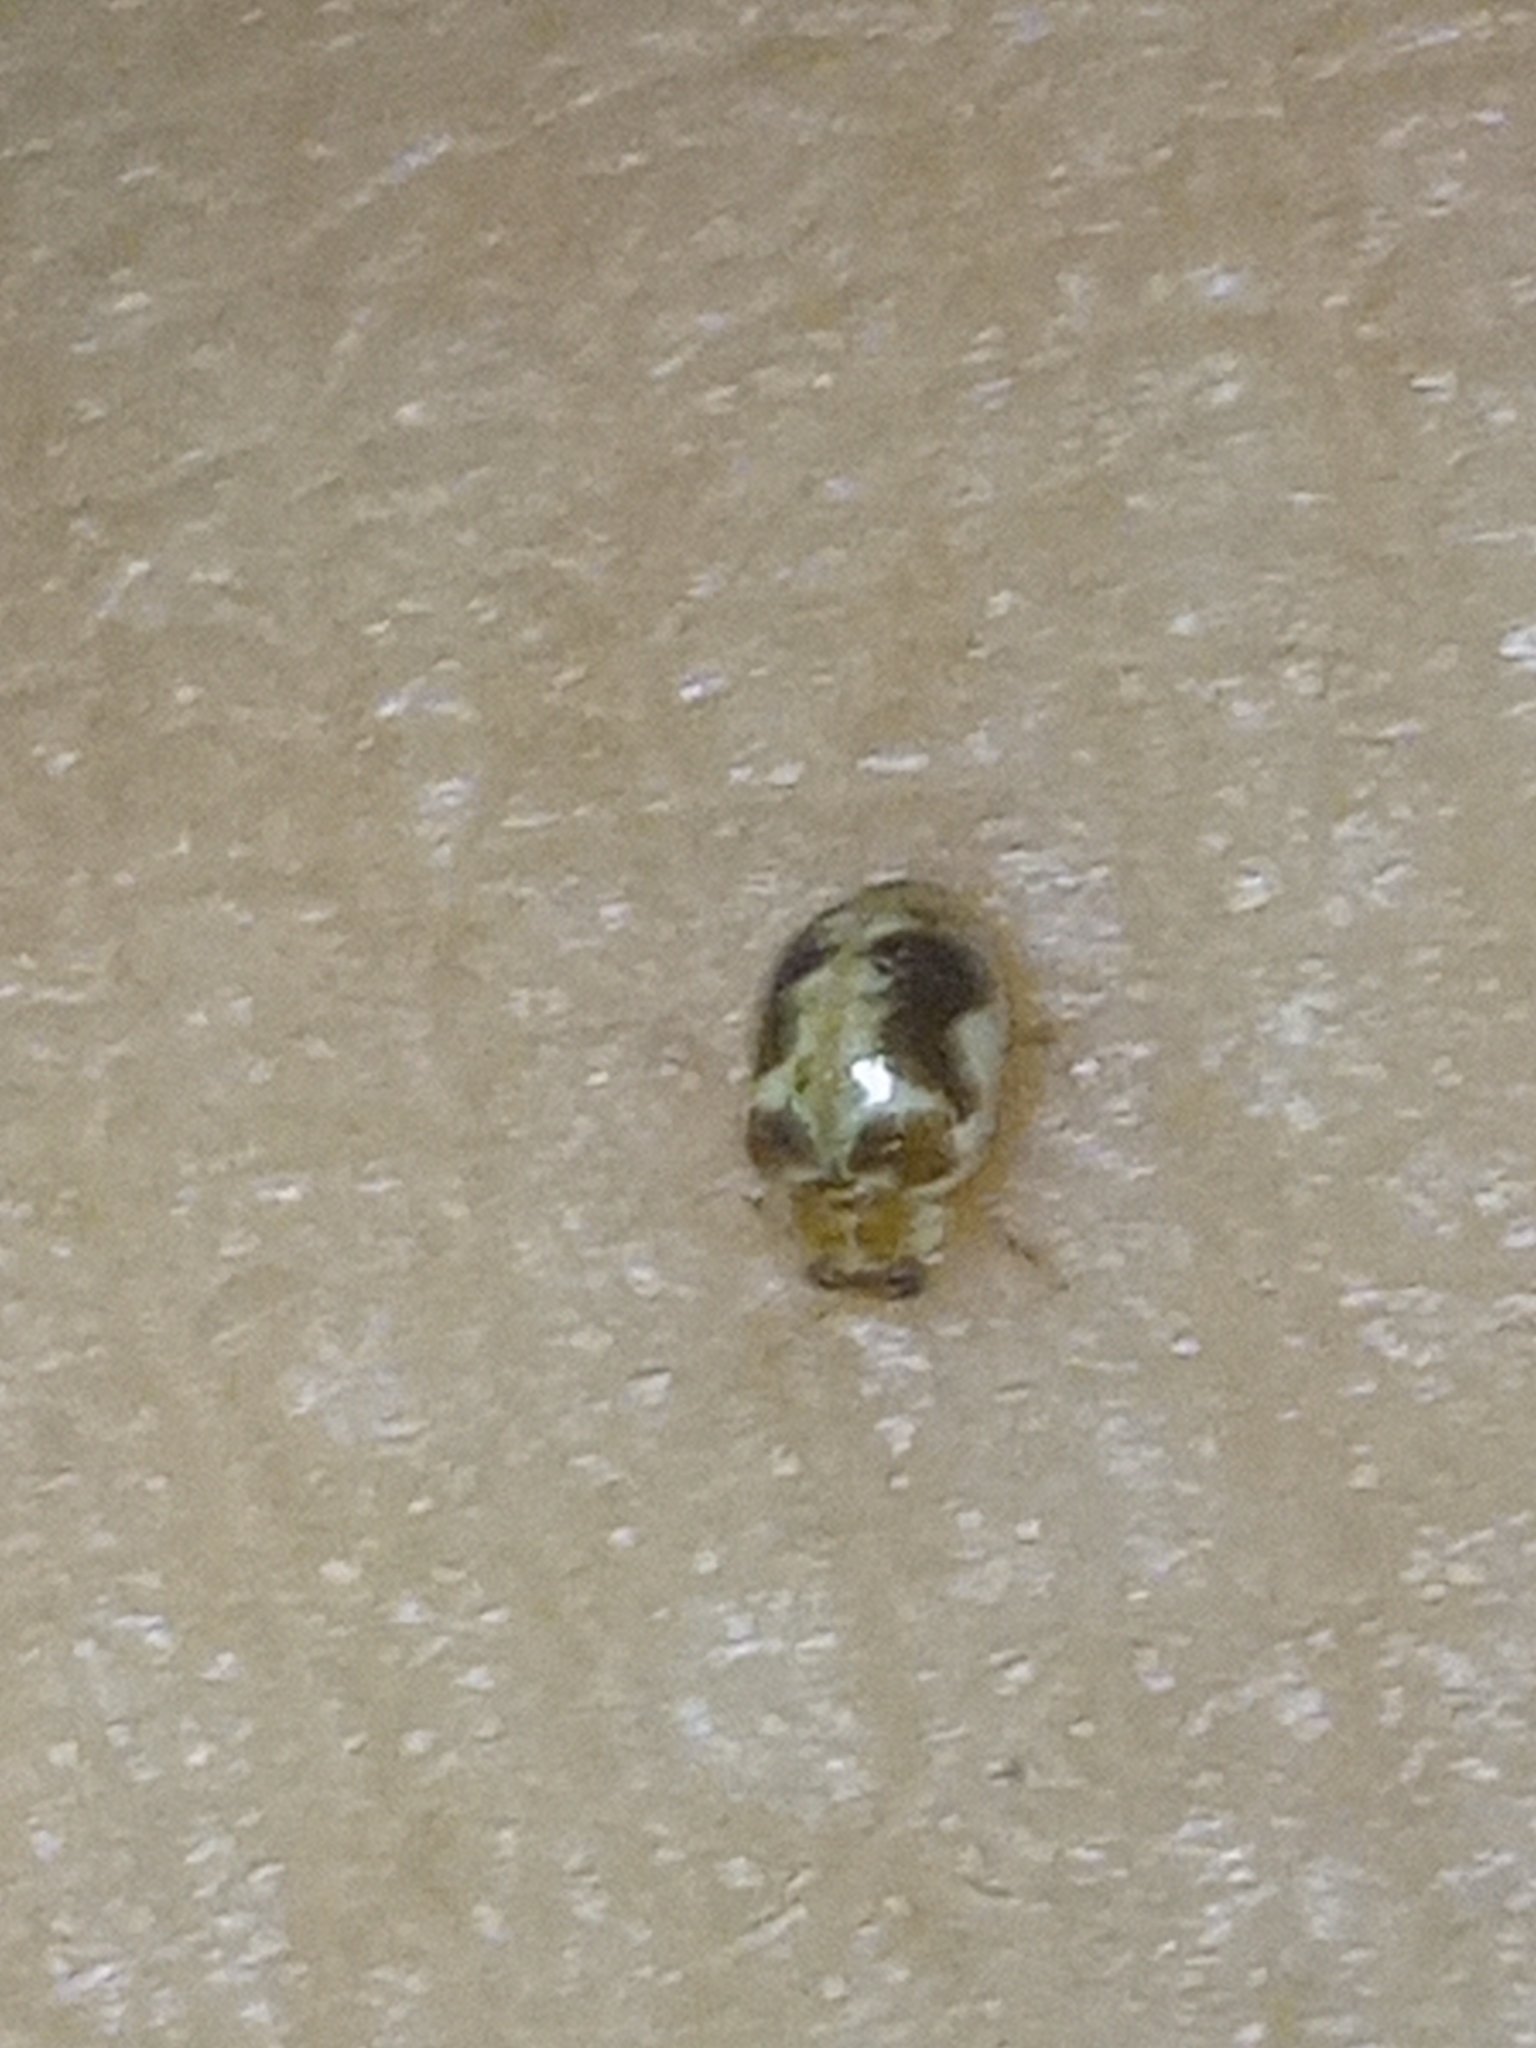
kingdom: Animalia
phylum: Arthropoda
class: Insecta
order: Coleoptera
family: Coccinellidae
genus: Psyllobora
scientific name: Psyllobora renifer
